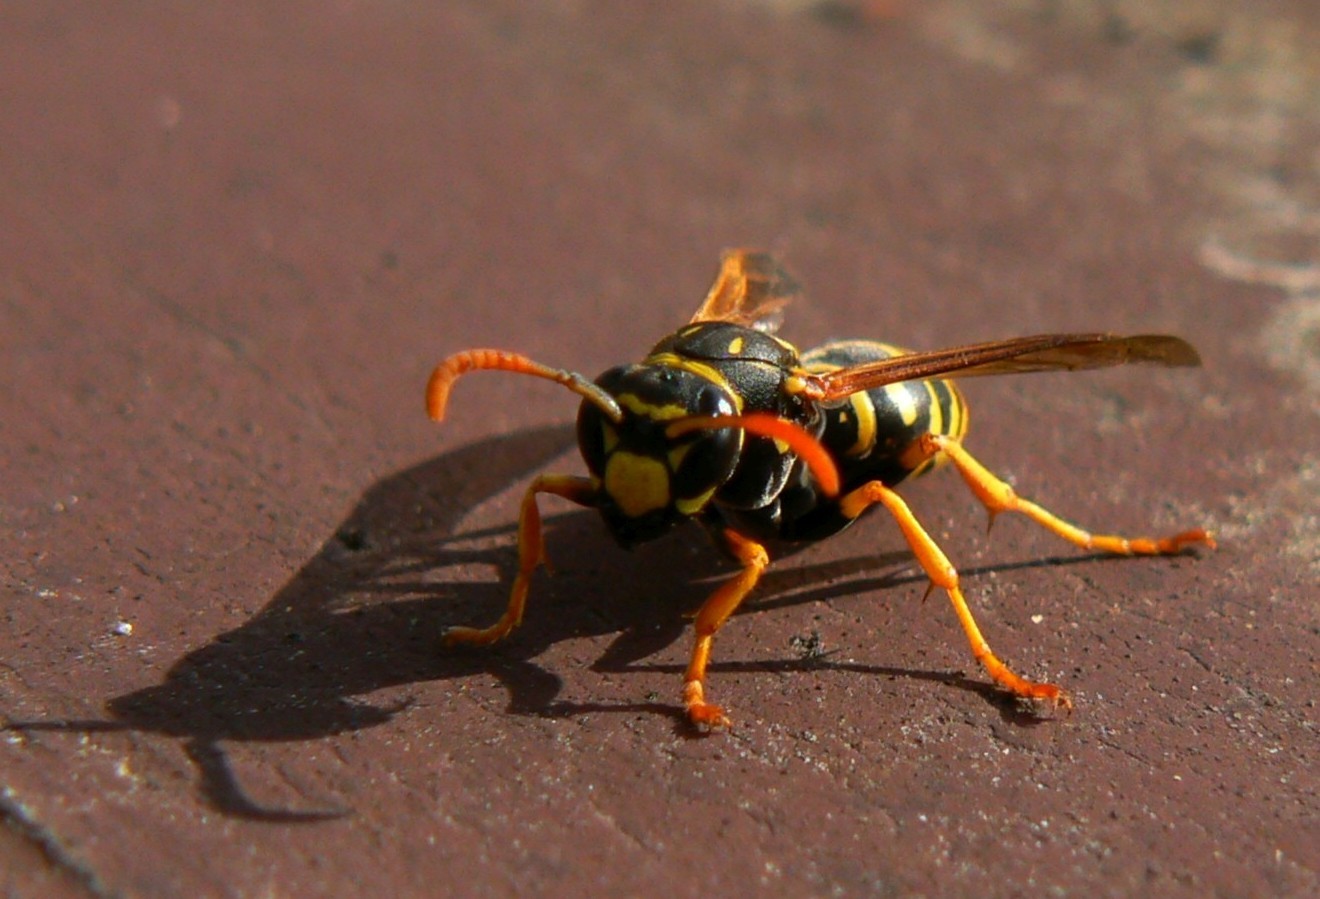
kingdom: Animalia
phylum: Arthropoda
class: Insecta
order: Hymenoptera
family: Eumenidae
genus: Polistes
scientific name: Polistes dominula
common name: Paper wasp
